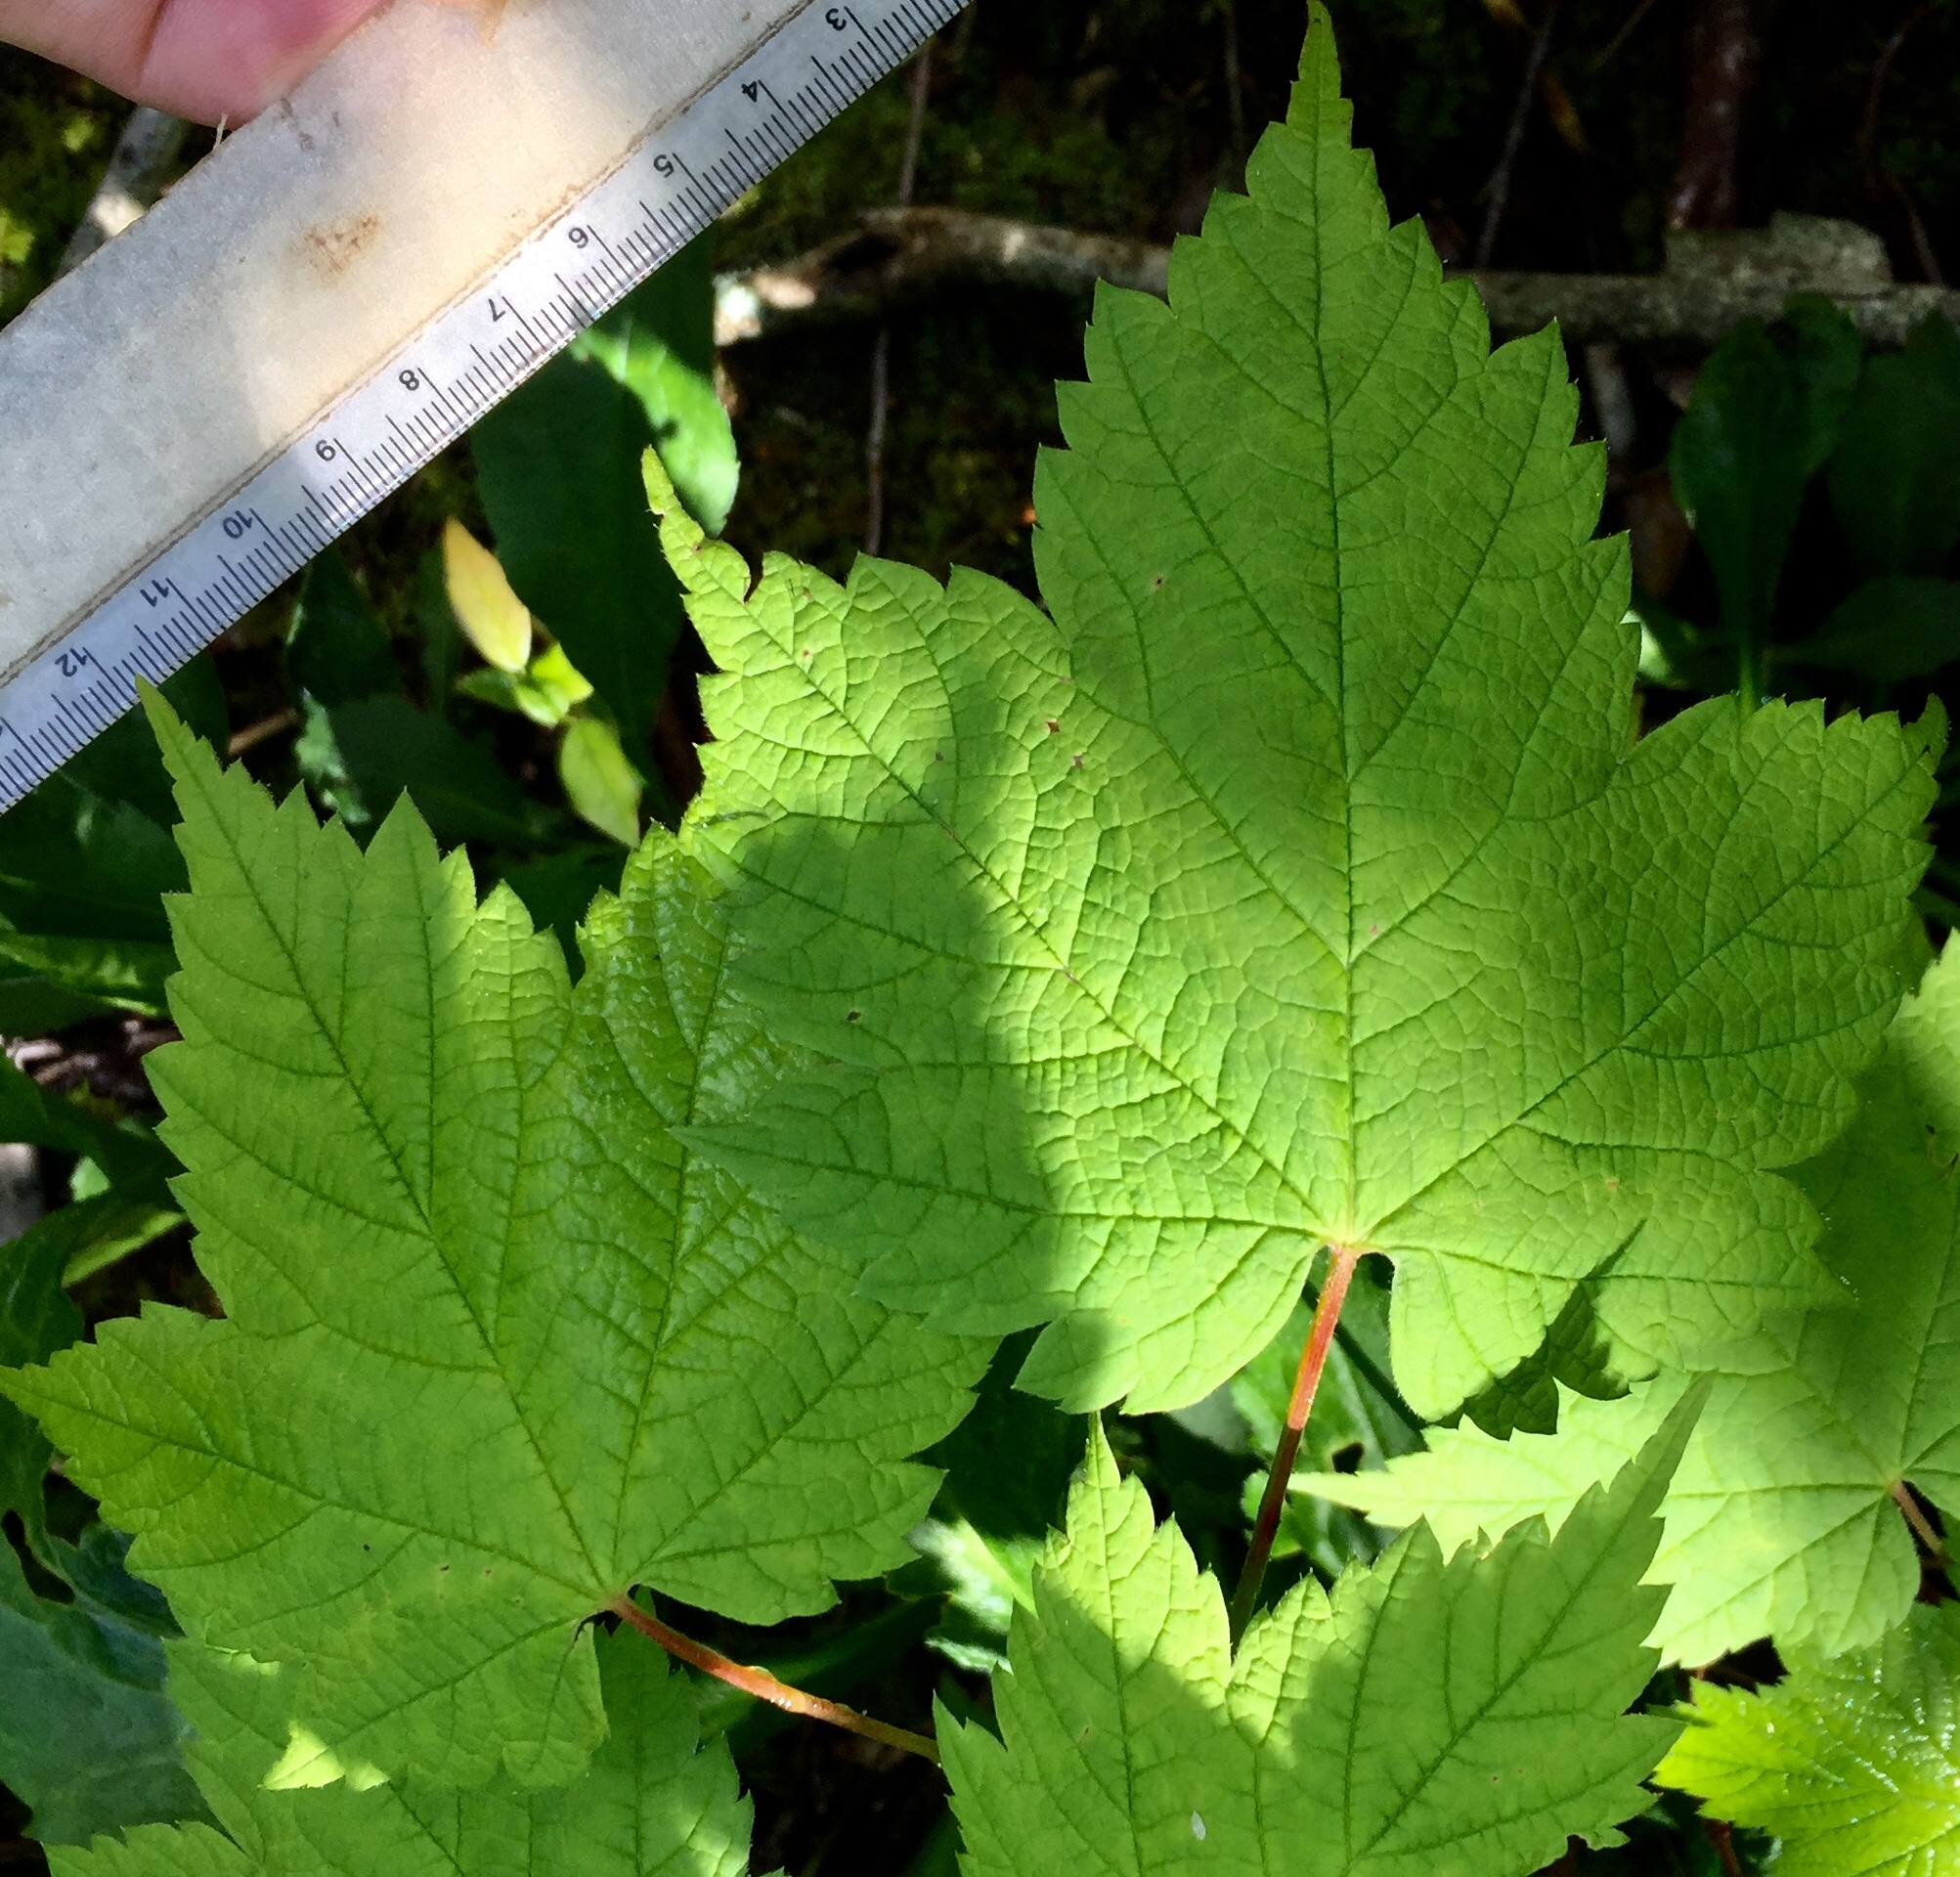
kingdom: Plantae
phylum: Tracheophyta
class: Magnoliopsida
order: Sapindales
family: Sapindaceae
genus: Acer
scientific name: Acer spicatum
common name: Mountain maple
